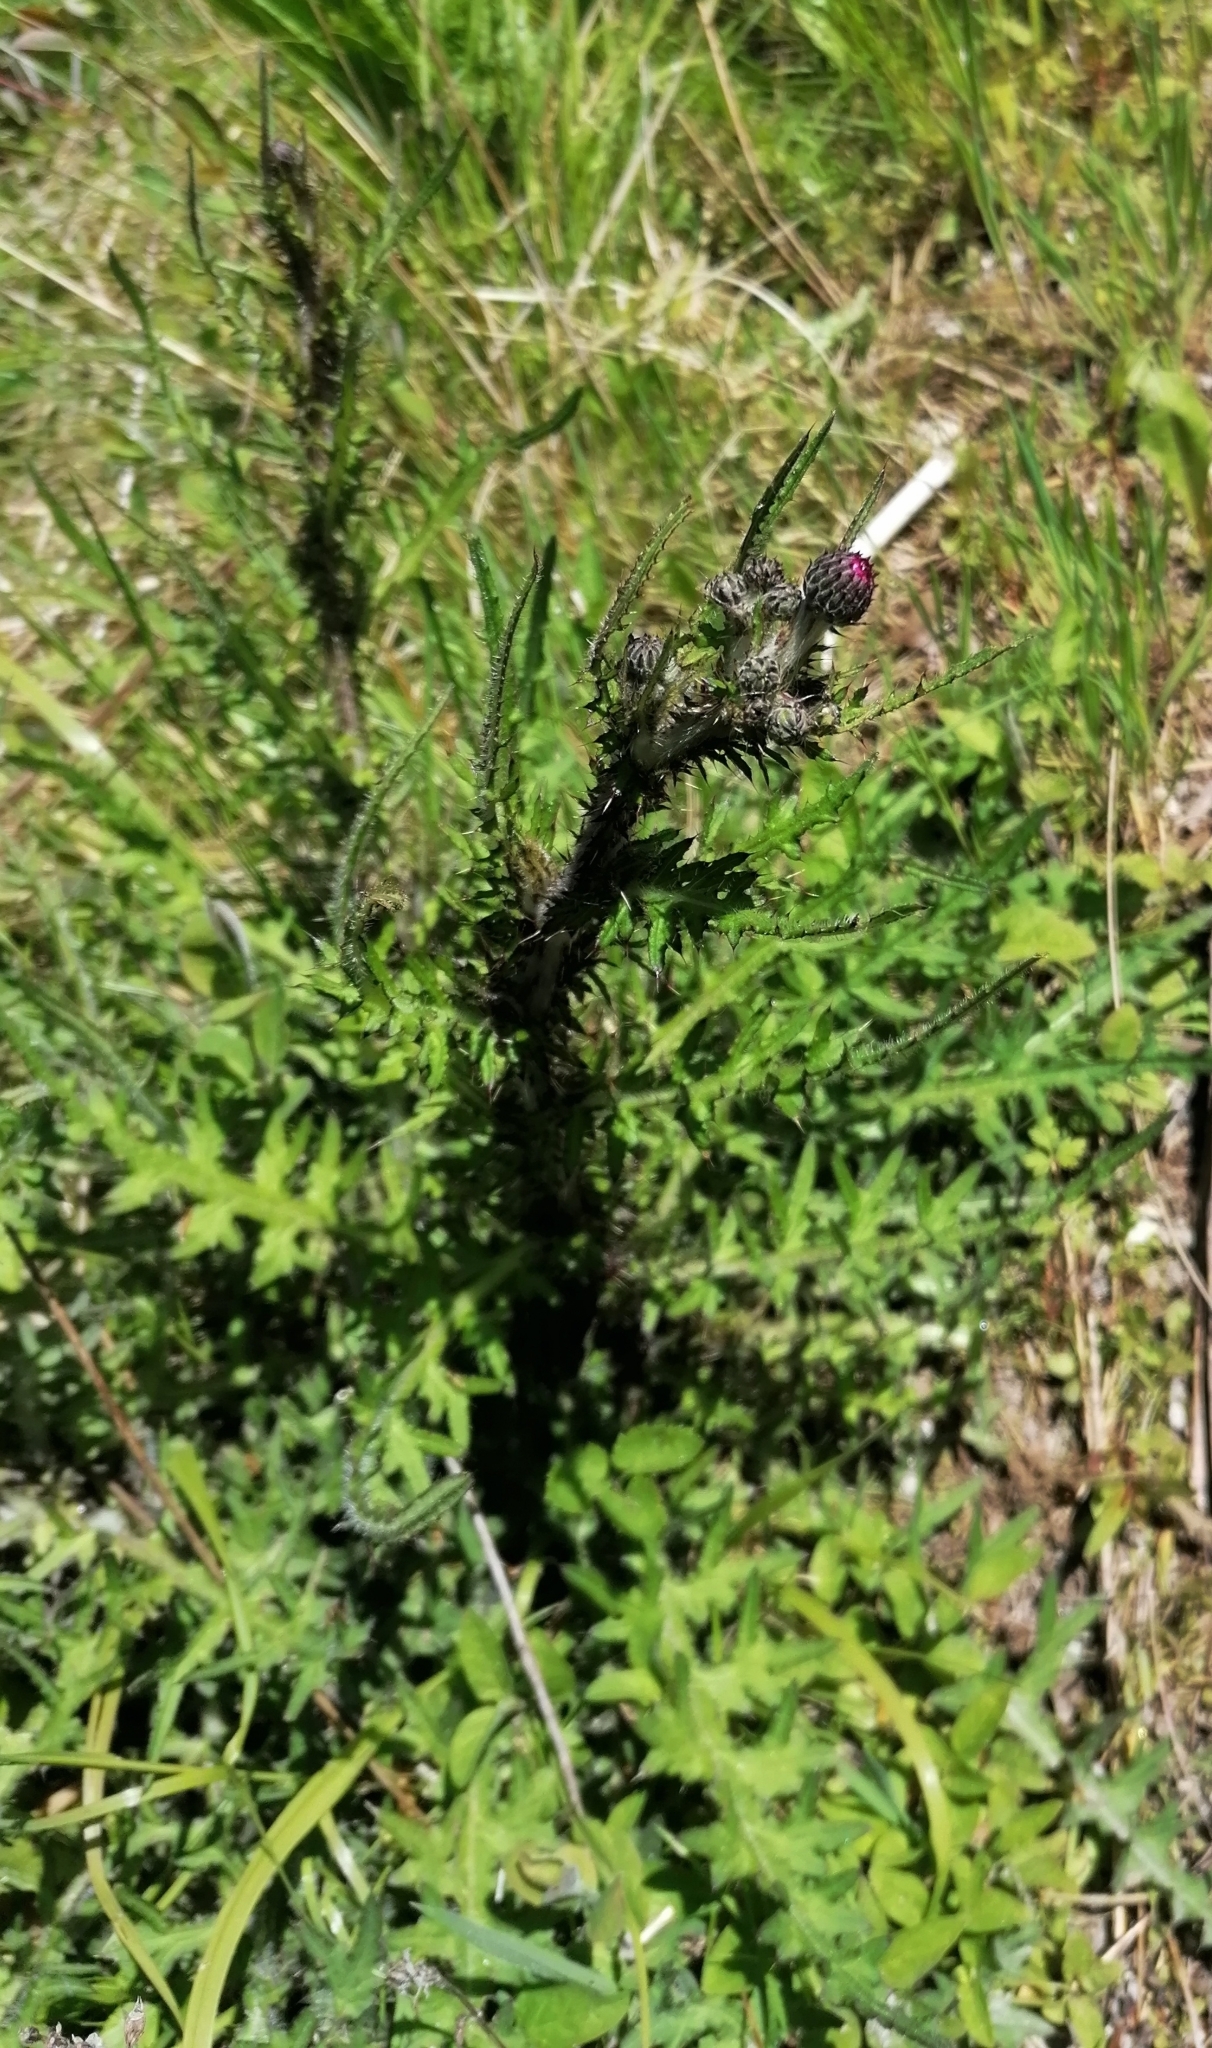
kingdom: Plantae
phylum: Tracheophyta
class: Magnoliopsida
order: Asterales
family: Asteraceae
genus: Cirsium
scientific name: Cirsium palustre
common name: Marsh thistle
